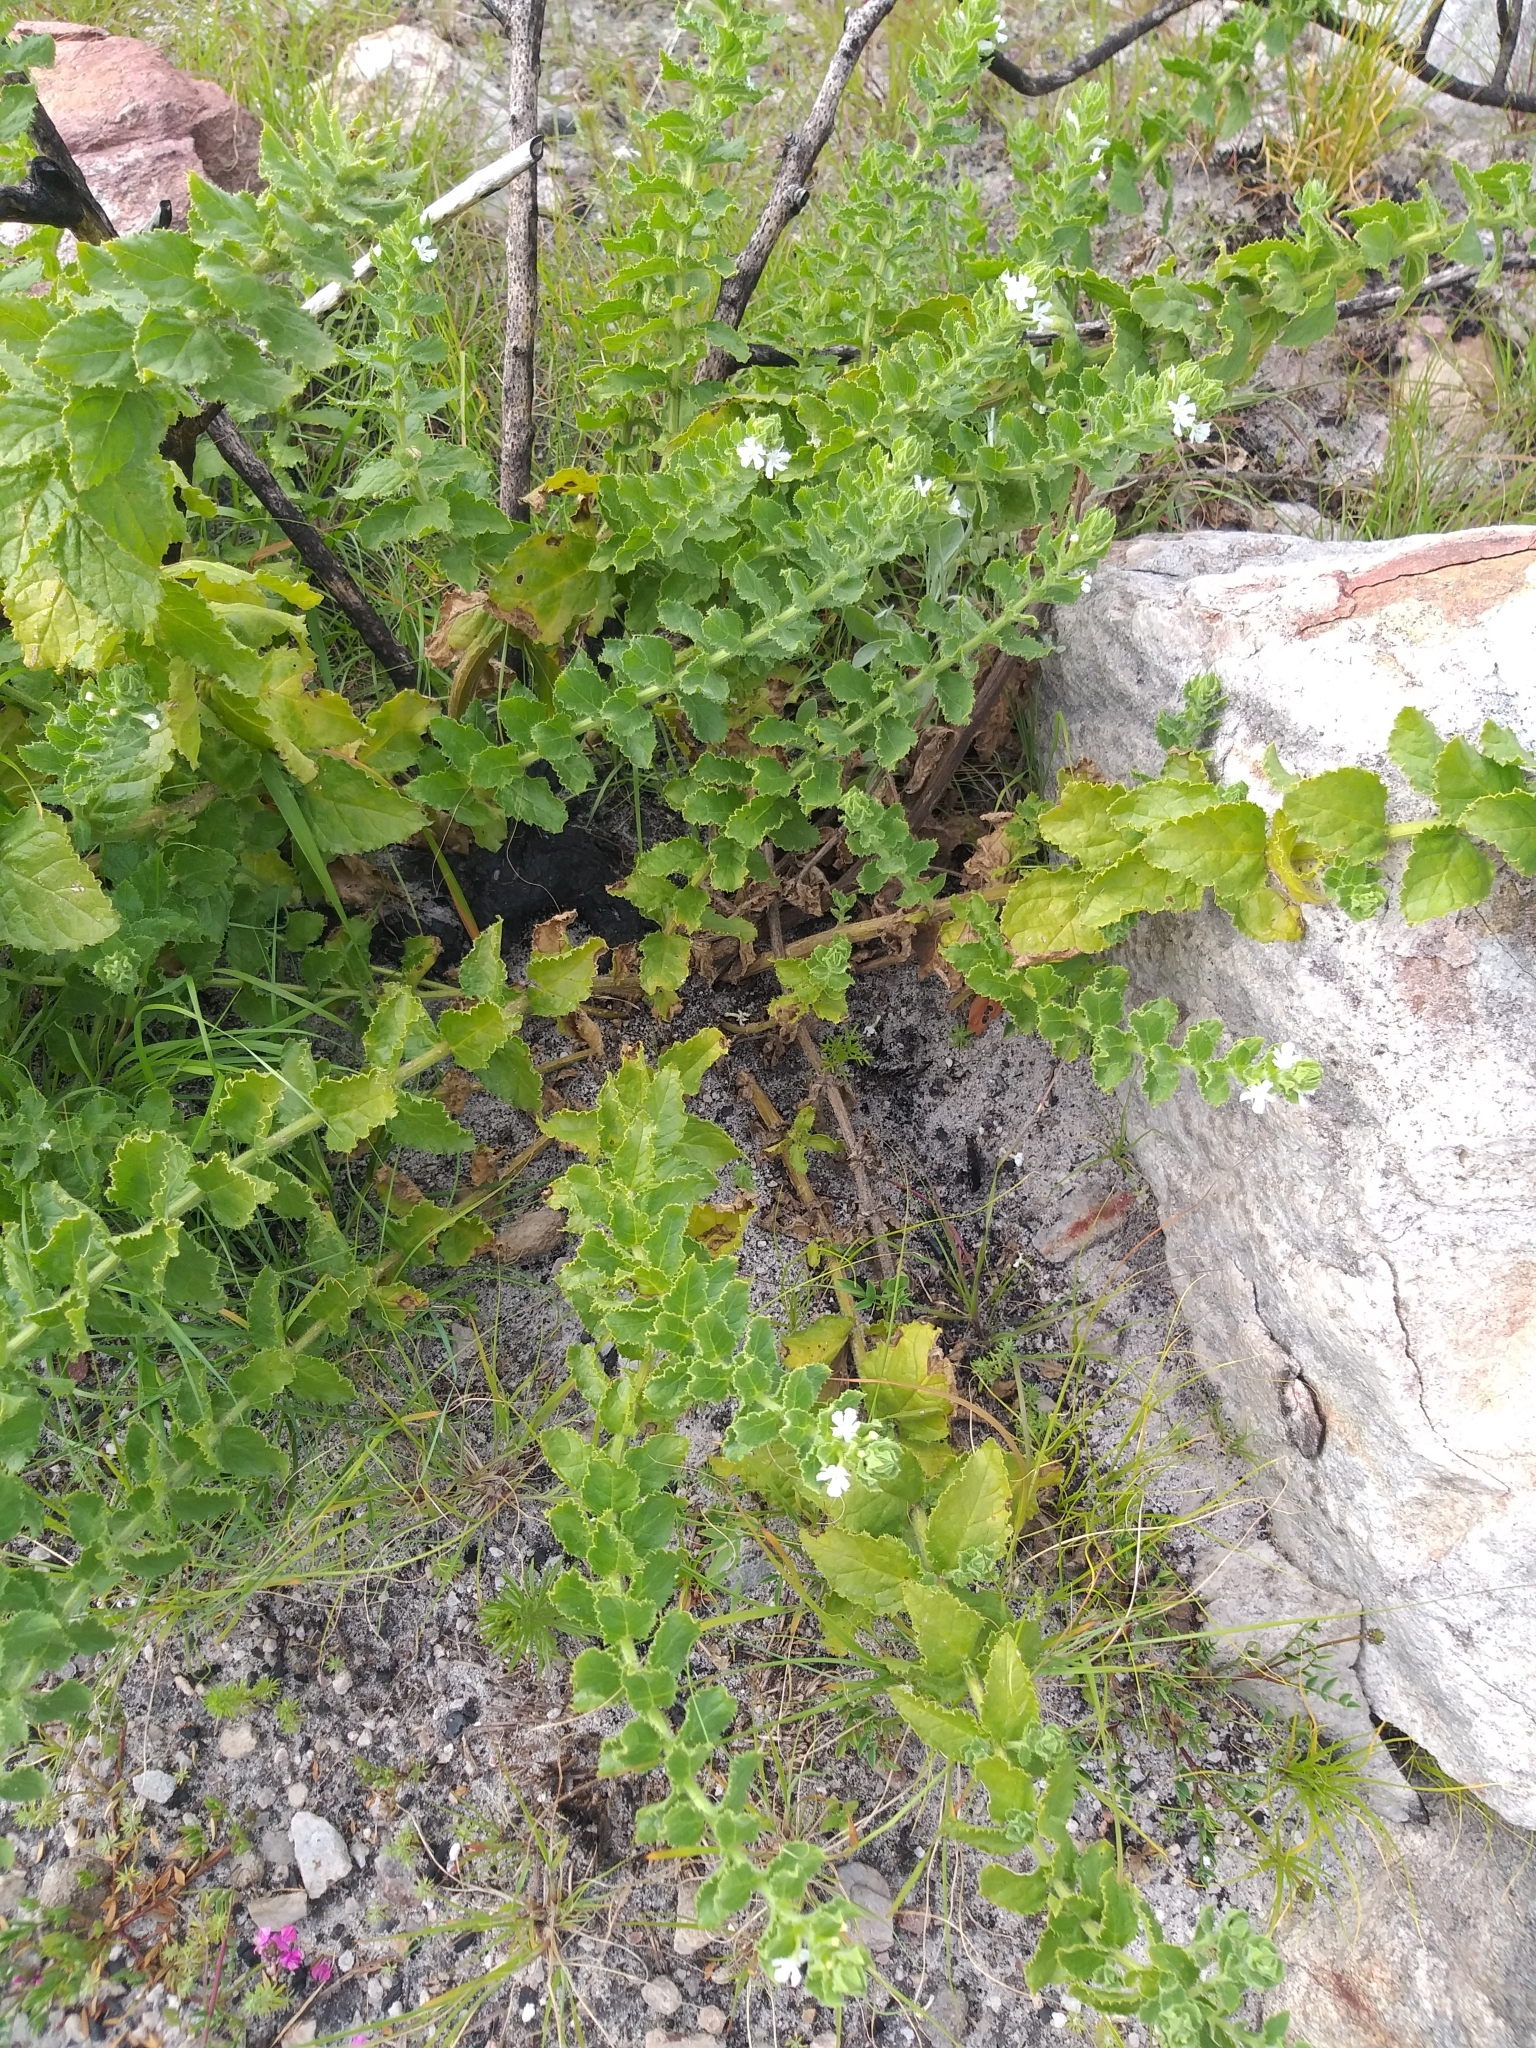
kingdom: Plantae
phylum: Tracheophyta
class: Magnoliopsida
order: Lamiales
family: Scrophulariaceae
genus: Oftia
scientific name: Oftia africana
